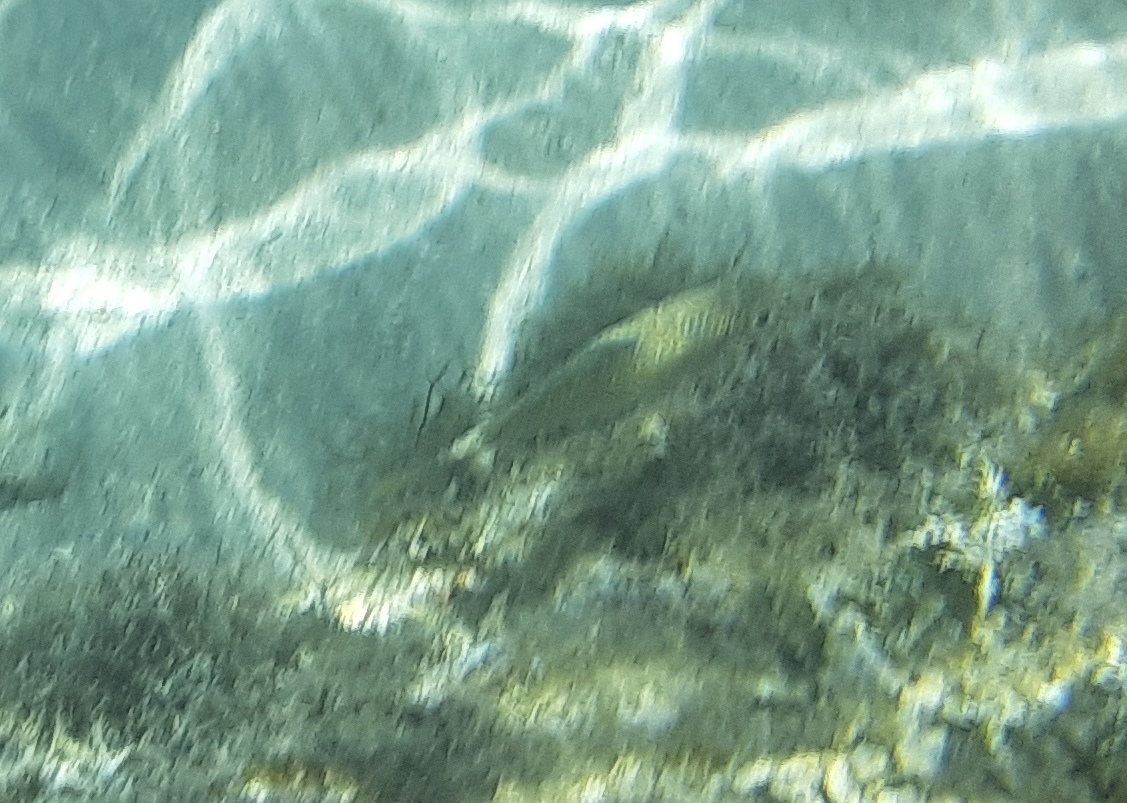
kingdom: Animalia
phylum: Chordata
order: Perciformes
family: Siganidae
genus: Siganus
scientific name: Siganus spinus
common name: Scribbled rabbitfish
